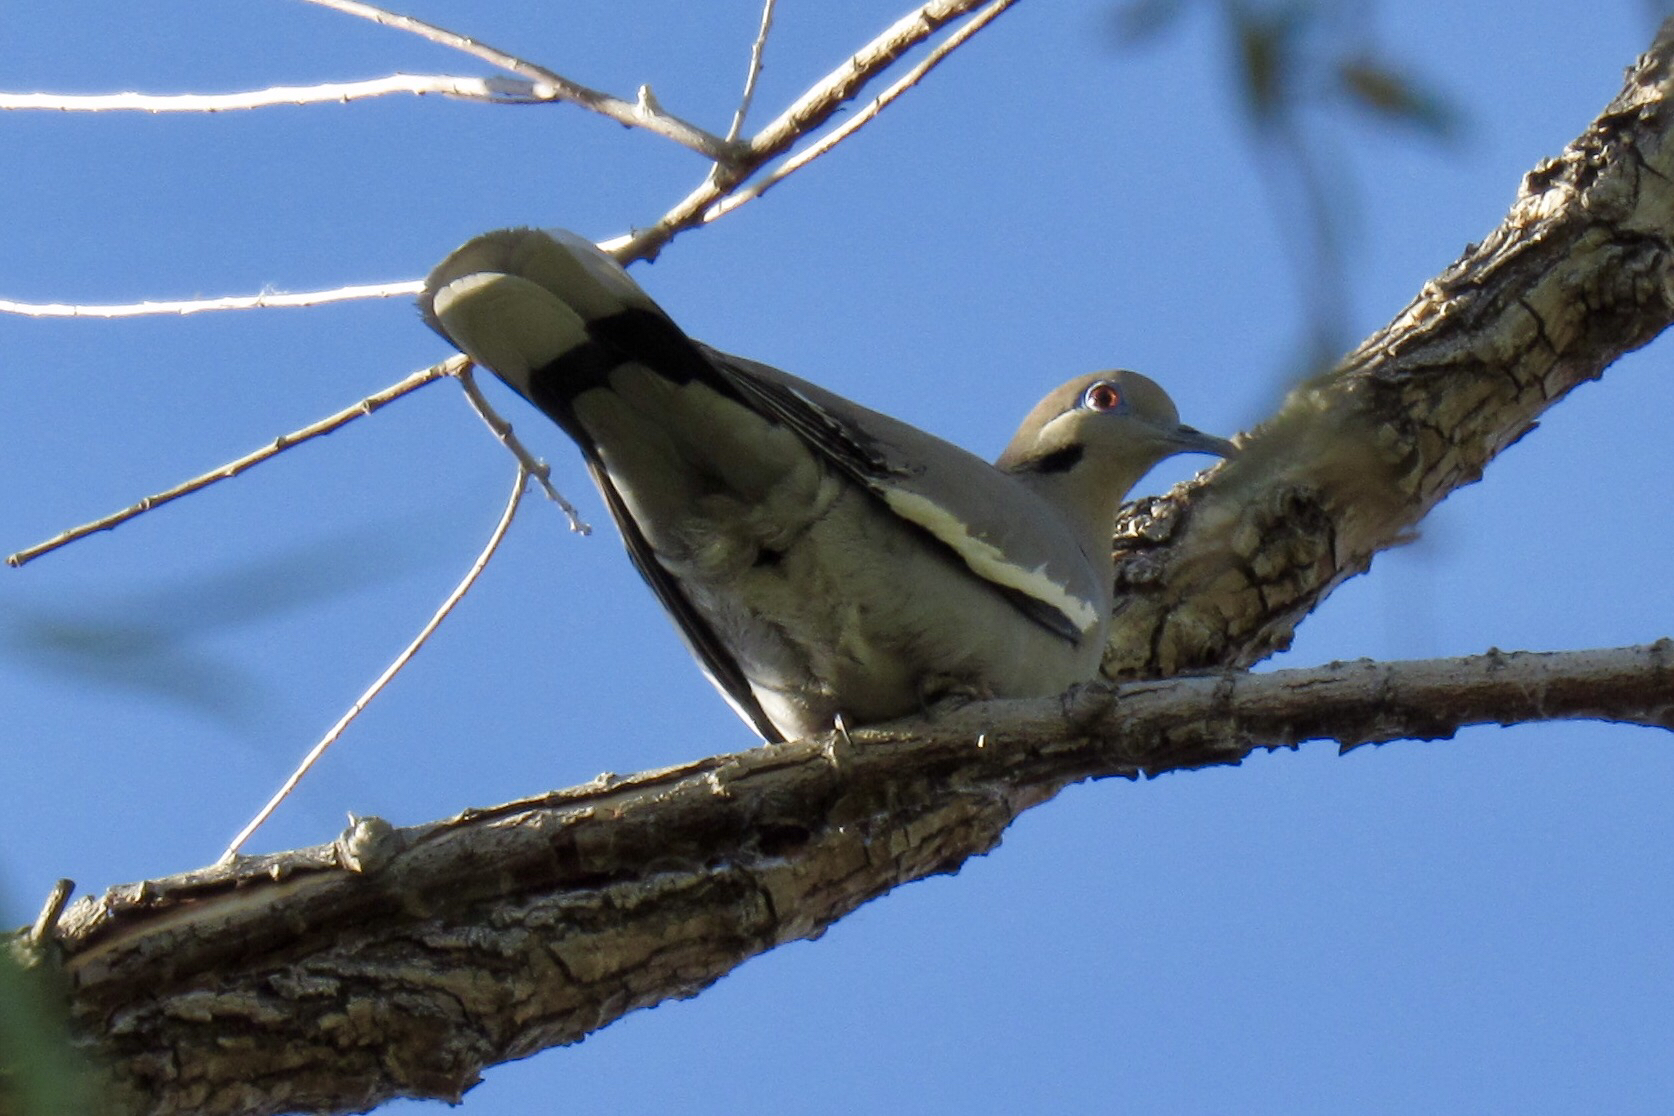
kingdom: Animalia
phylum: Chordata
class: Aves
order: Columbiformes
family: Columbidae
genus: Zenaida
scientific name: Zenaida asiatica
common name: White-winged dove
